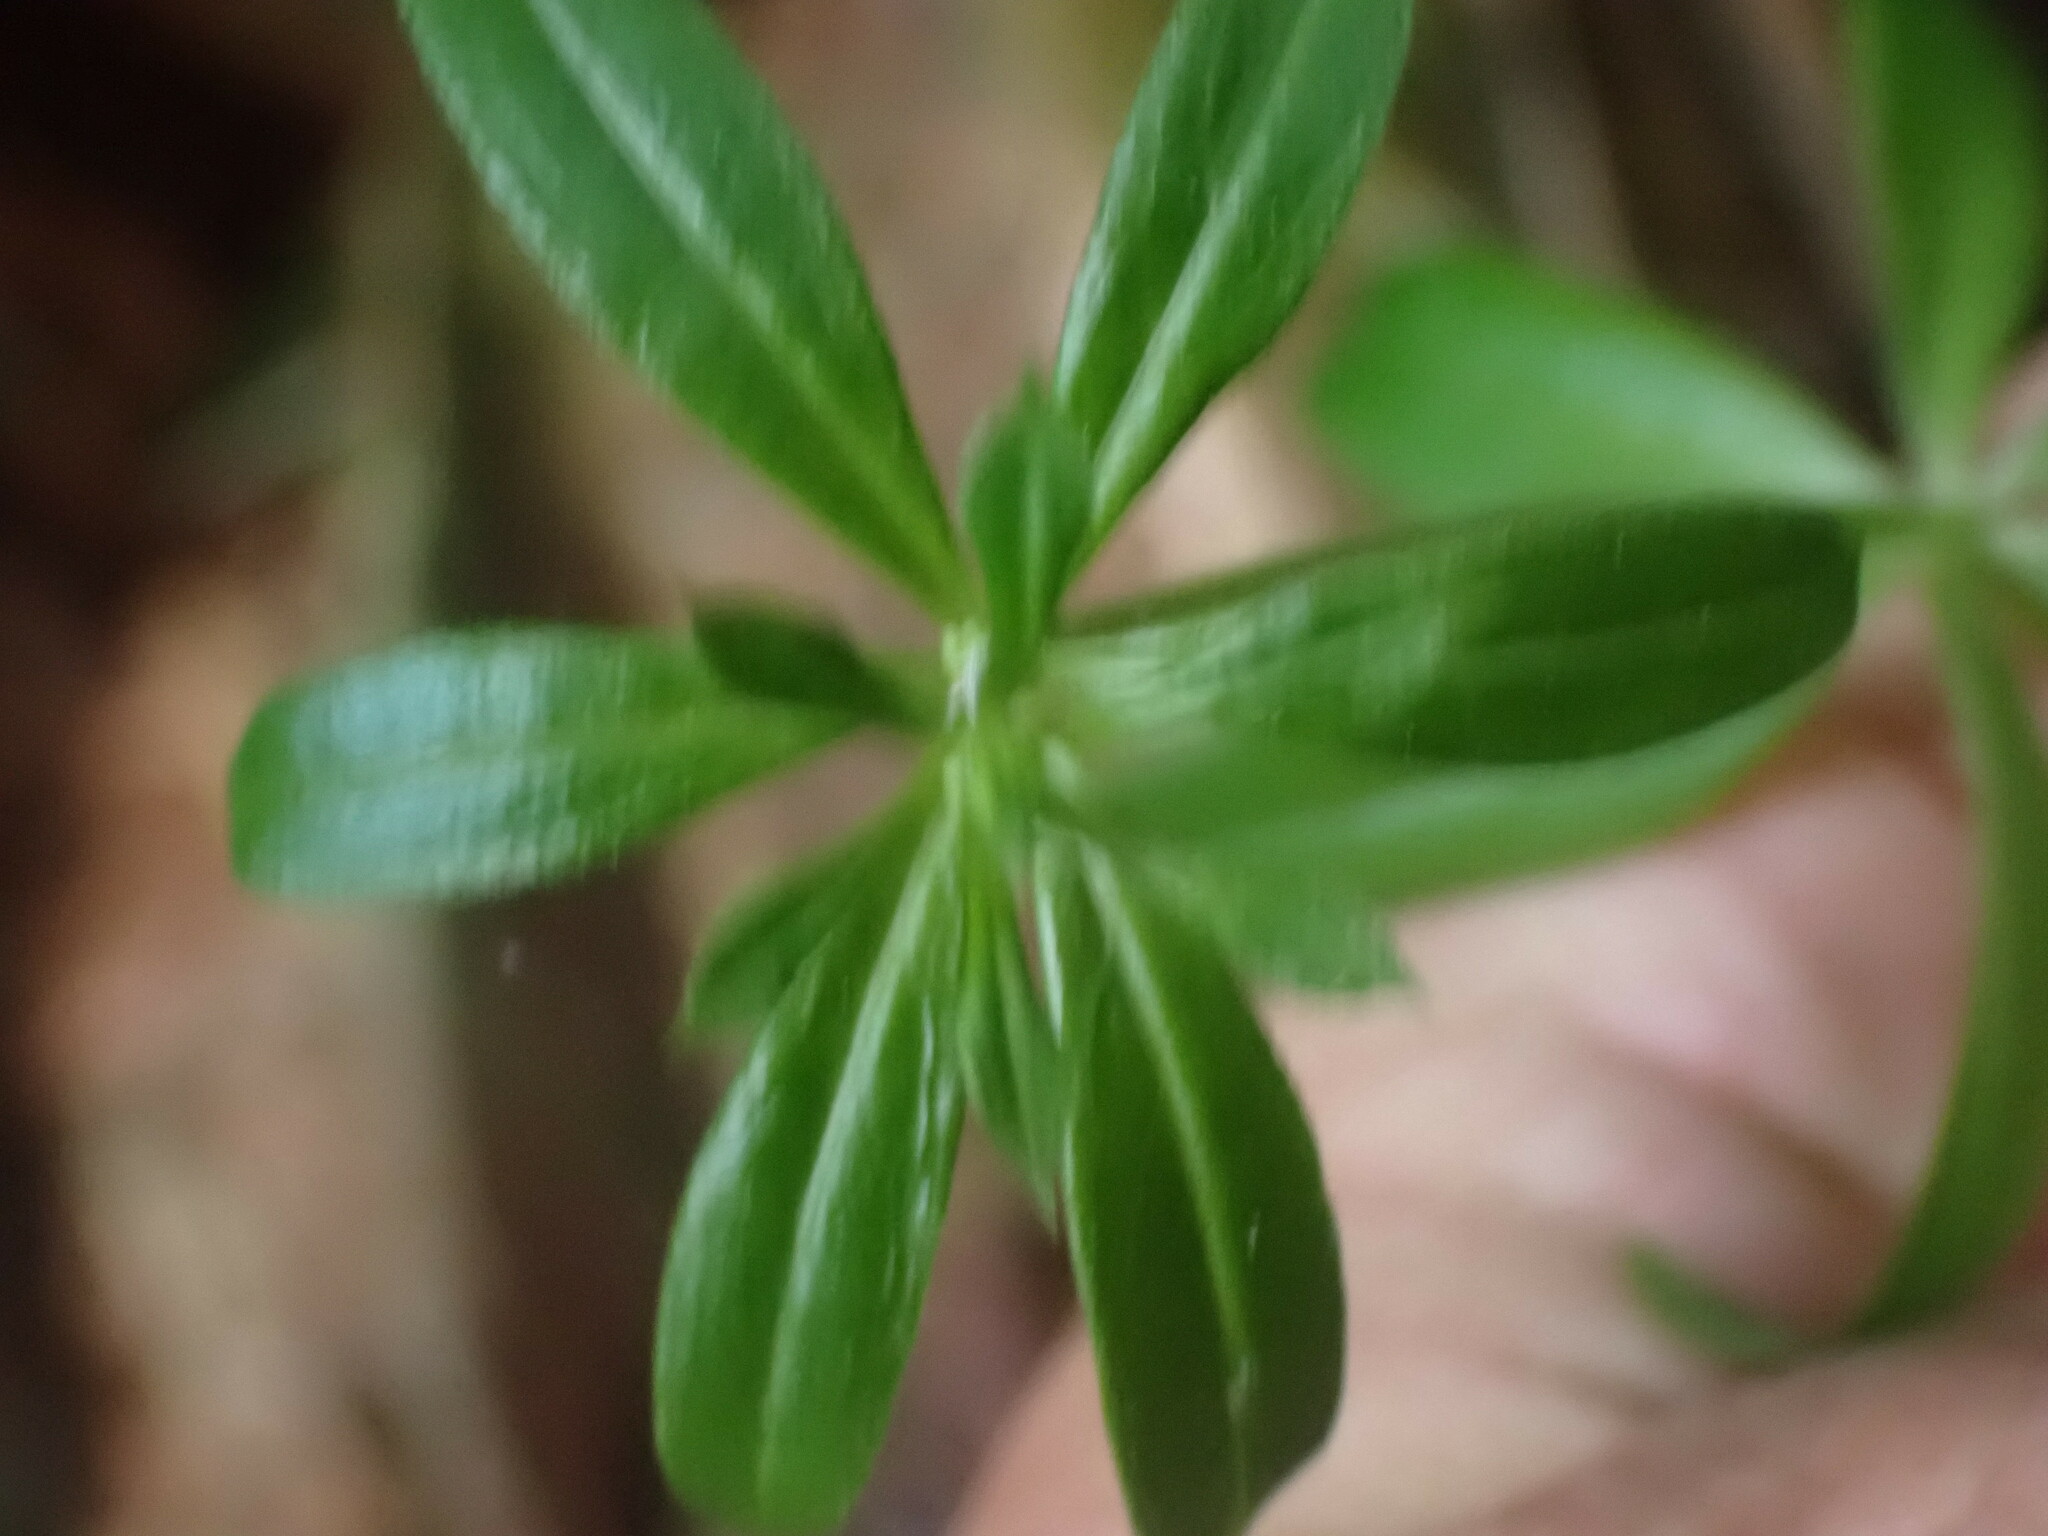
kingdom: Plantae
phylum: Tracheophyta
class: Magnoliopsida
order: Gentianales
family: Rubiaceae
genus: Galium
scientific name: Galium triflorum
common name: Fragrant bedstraw
